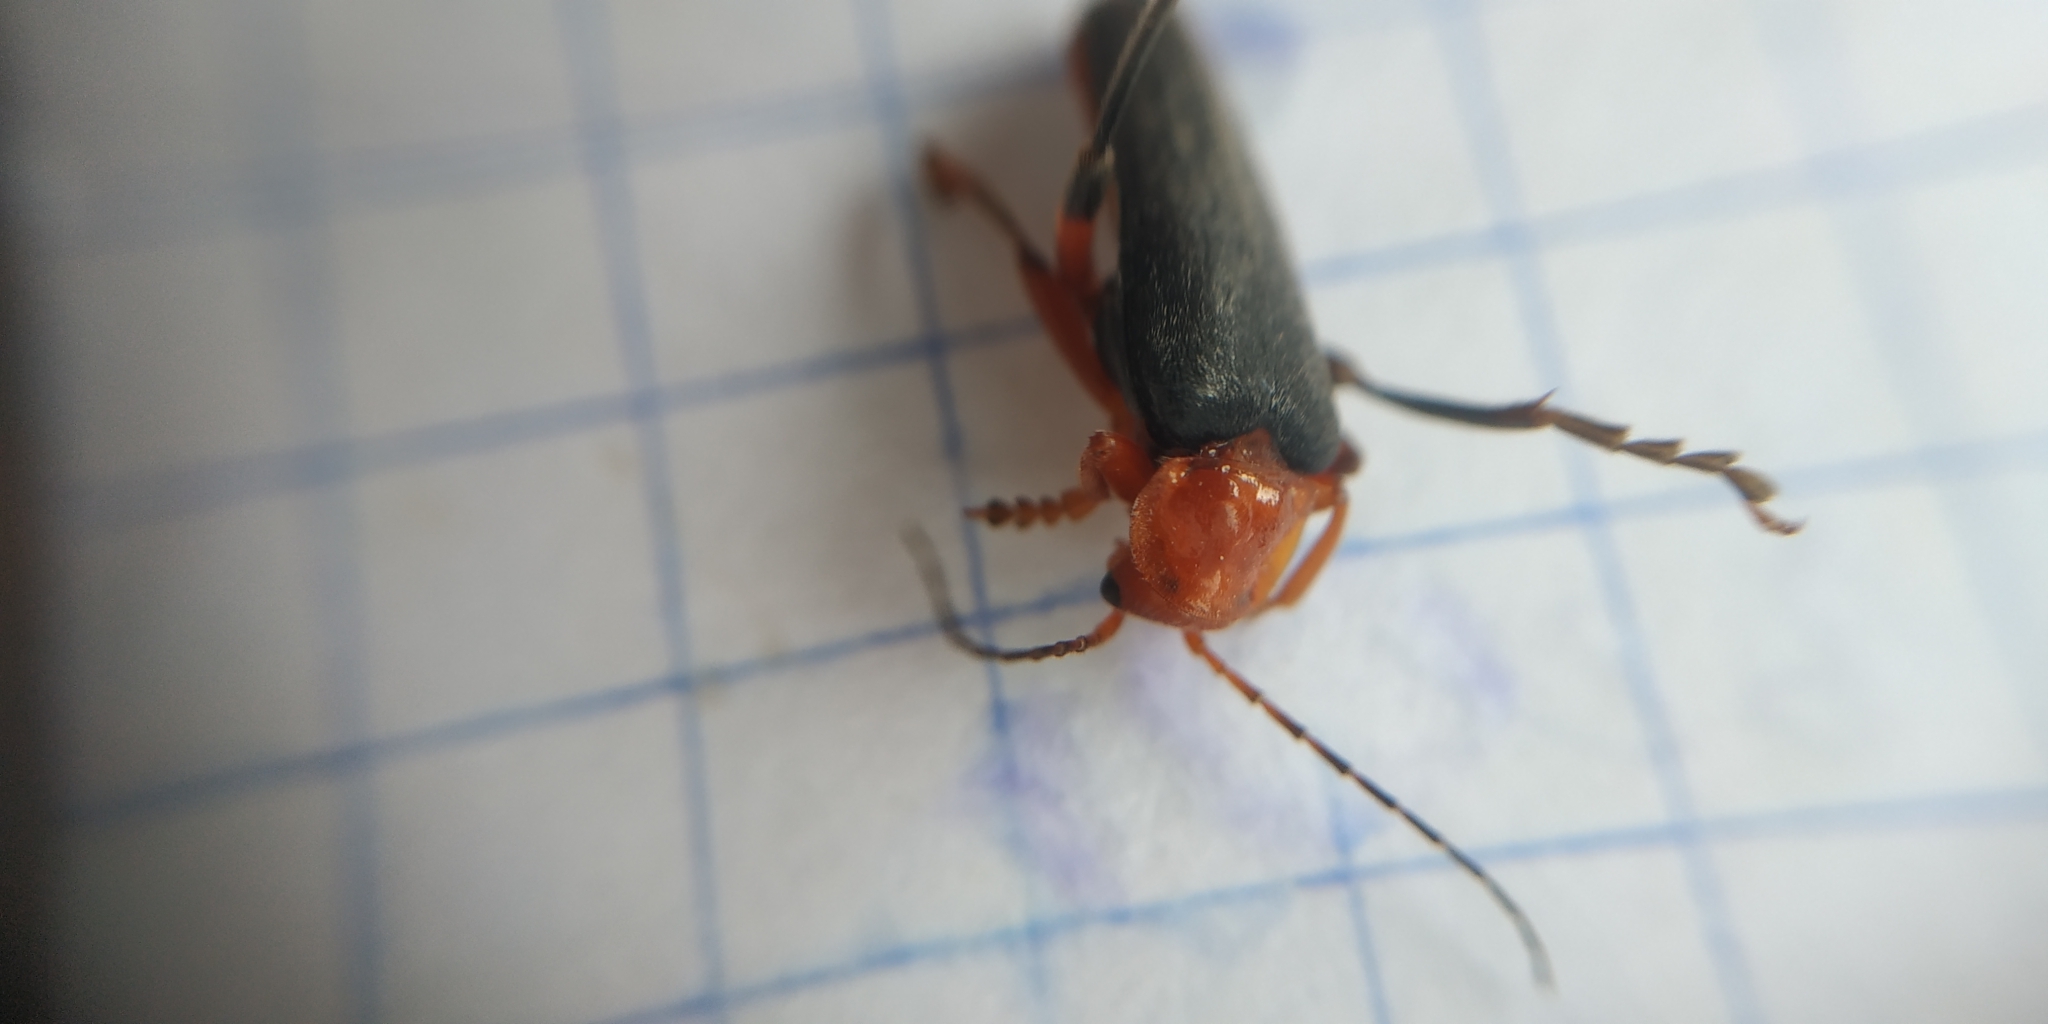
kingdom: Animalia
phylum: Arthropoda
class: Insecta
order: Coleoptera
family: Cantharidae
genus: Cantharis
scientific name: Cantharis livida
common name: Livid soldier beetle
